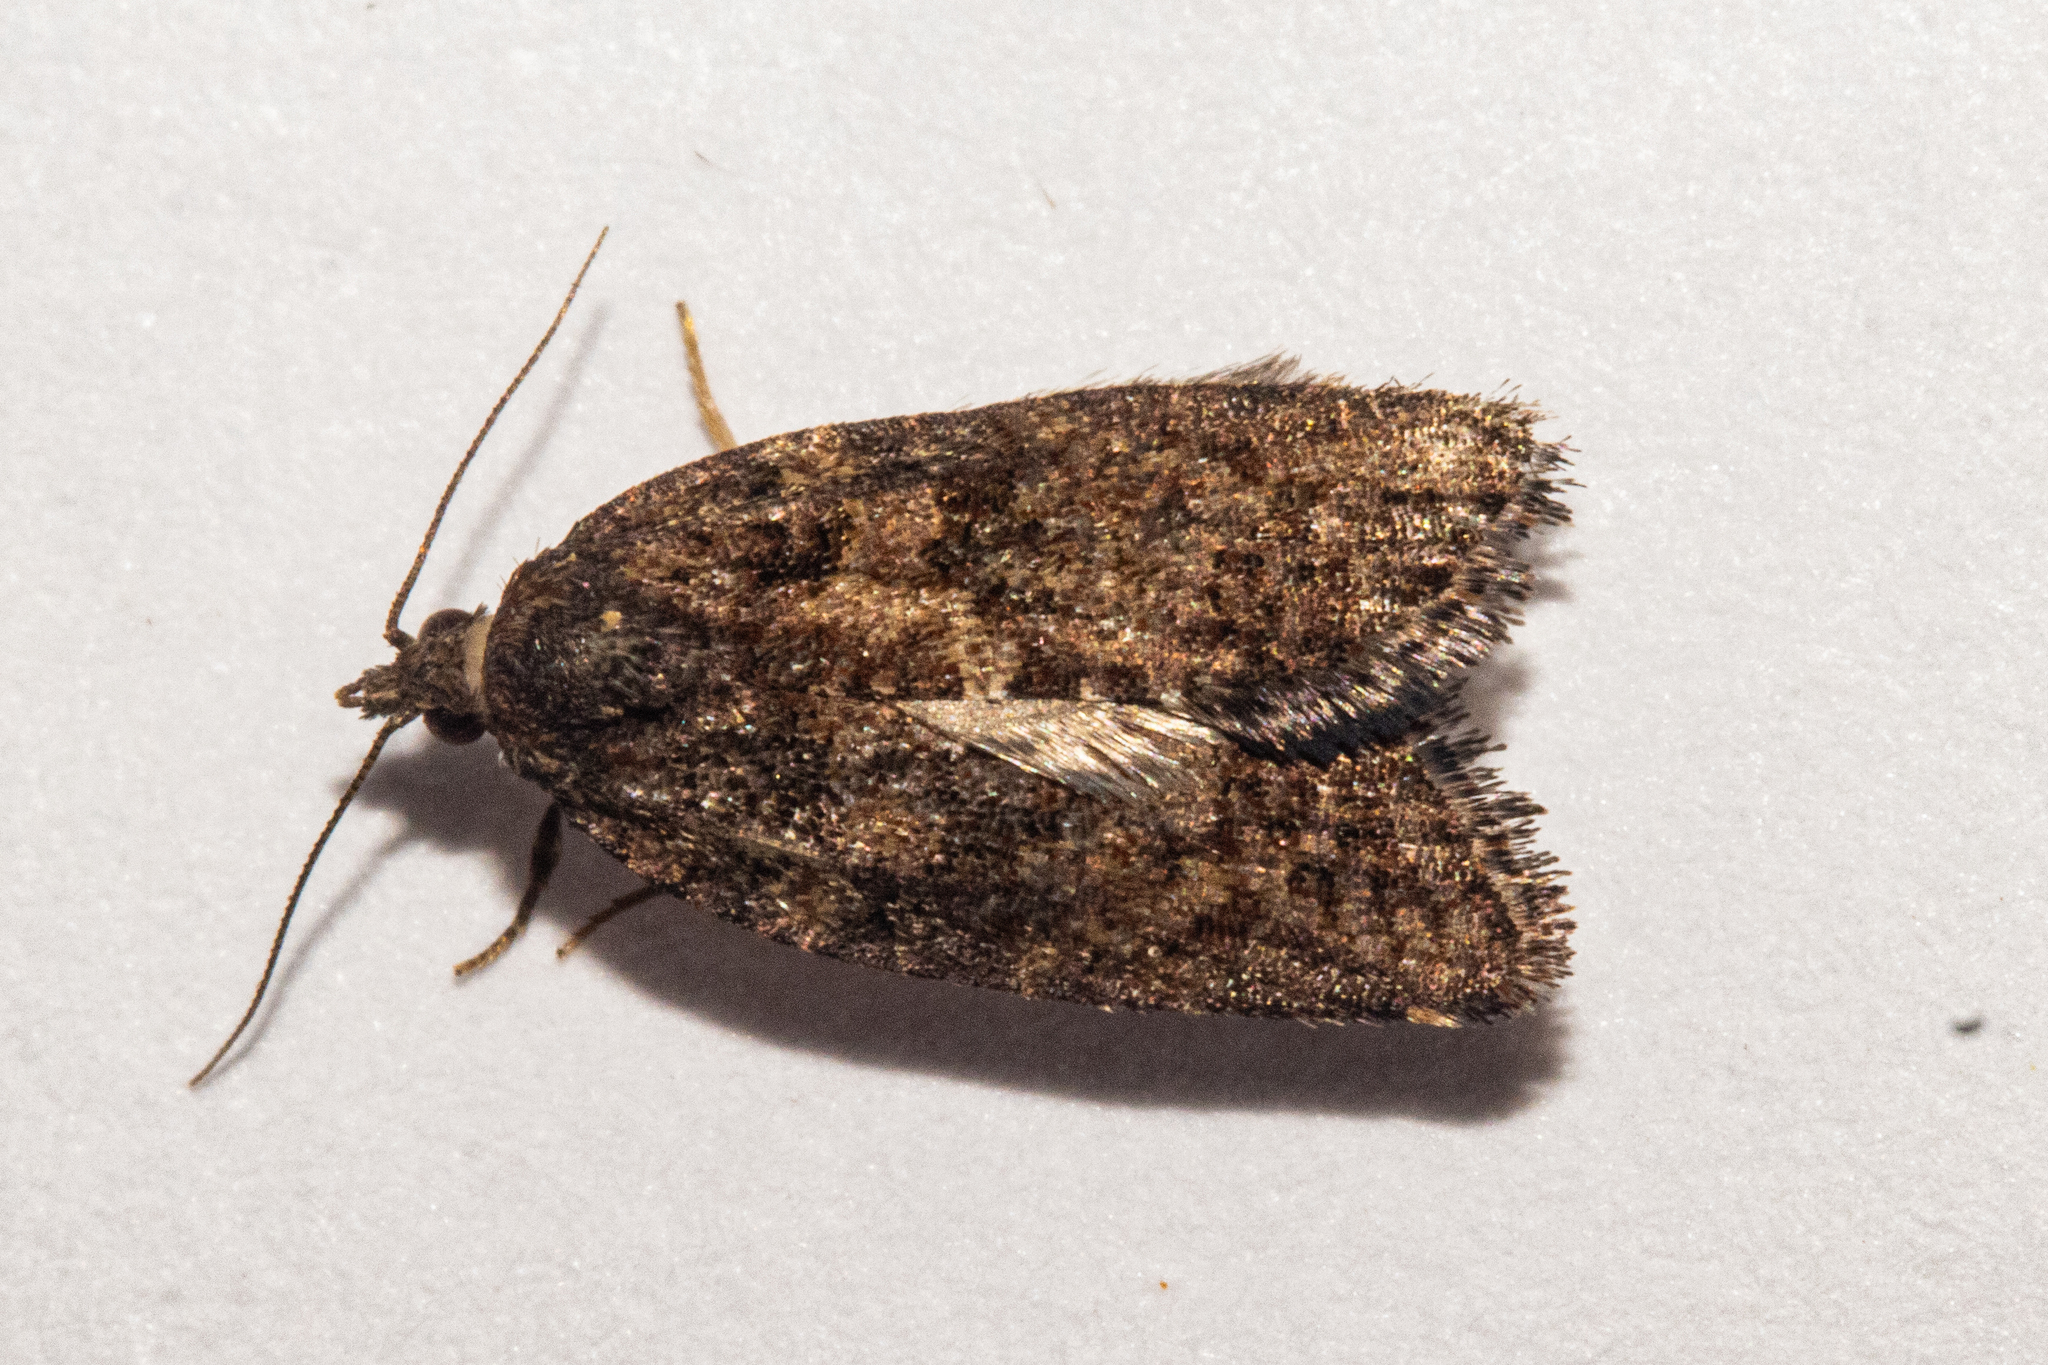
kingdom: Animalia
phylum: Arthropoda
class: Insecta
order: Lepidoptera
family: Tortricidae
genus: Capua
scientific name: Capua intractana
